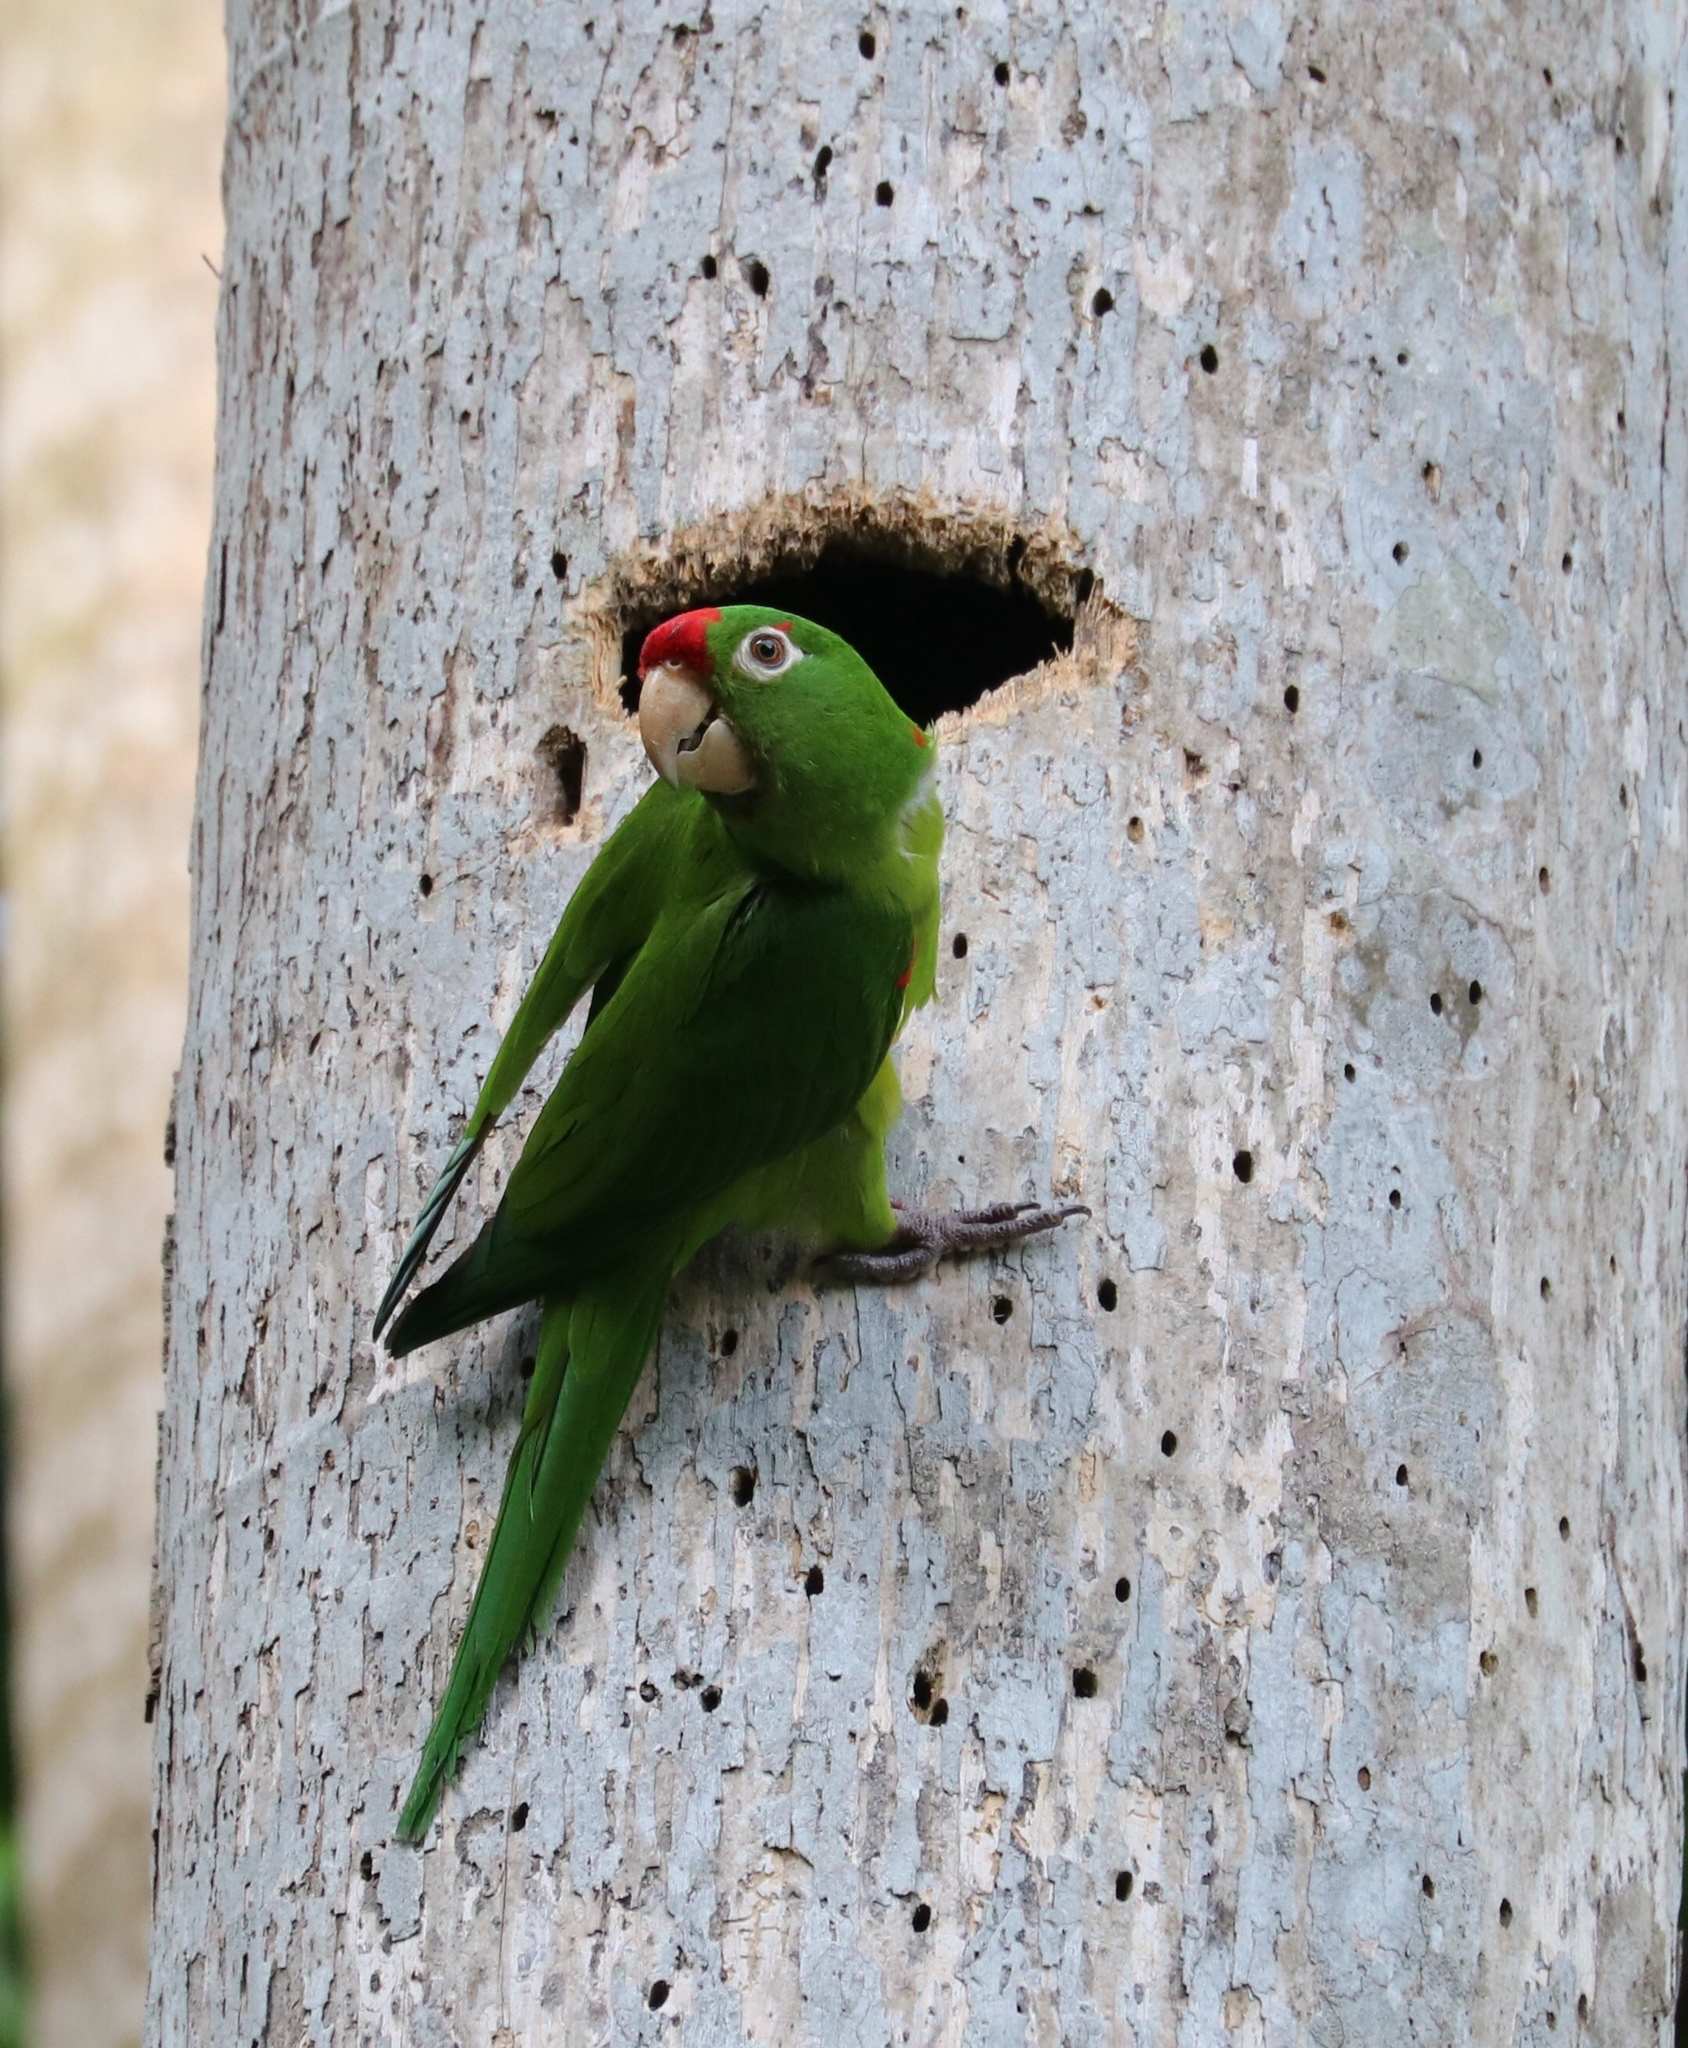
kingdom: Animalia
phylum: Chordata
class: Aves
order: Psittaciformes
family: Psittacidae
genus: Aratinga
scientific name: Aratinga finschi
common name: Crimson-fronted parakeet
